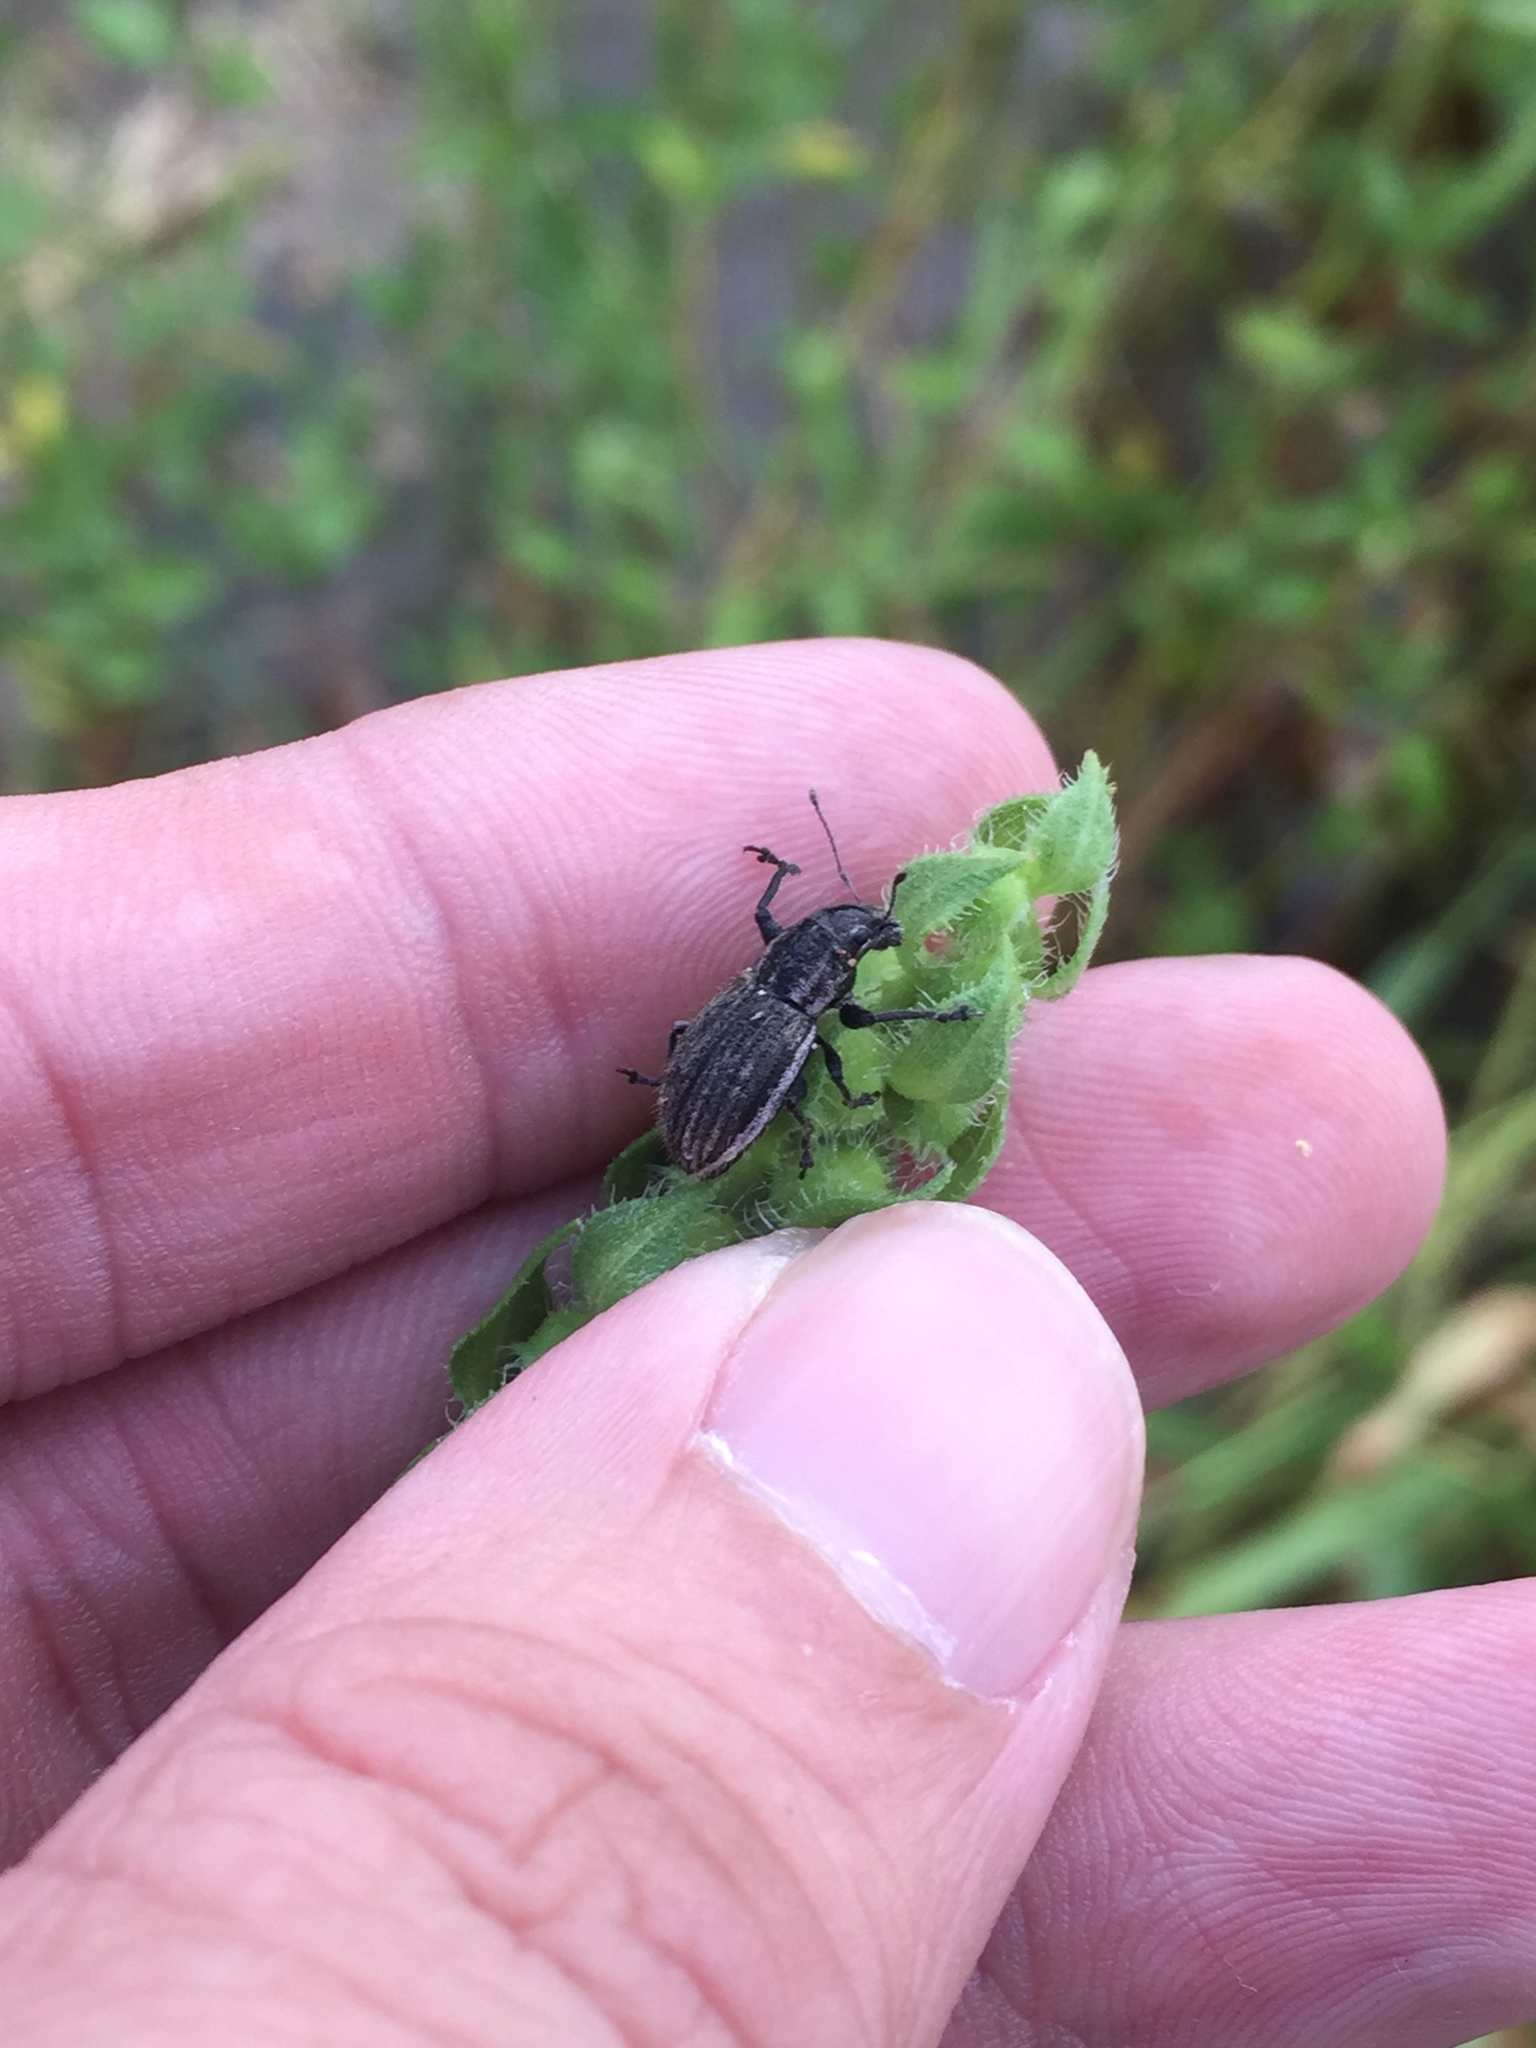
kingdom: Animalia
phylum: Arthropoda
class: Insecta
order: Coleoptera
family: Curculionidae
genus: Naupactus
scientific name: Naupactus leucoloma
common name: Whitefringed beetle
